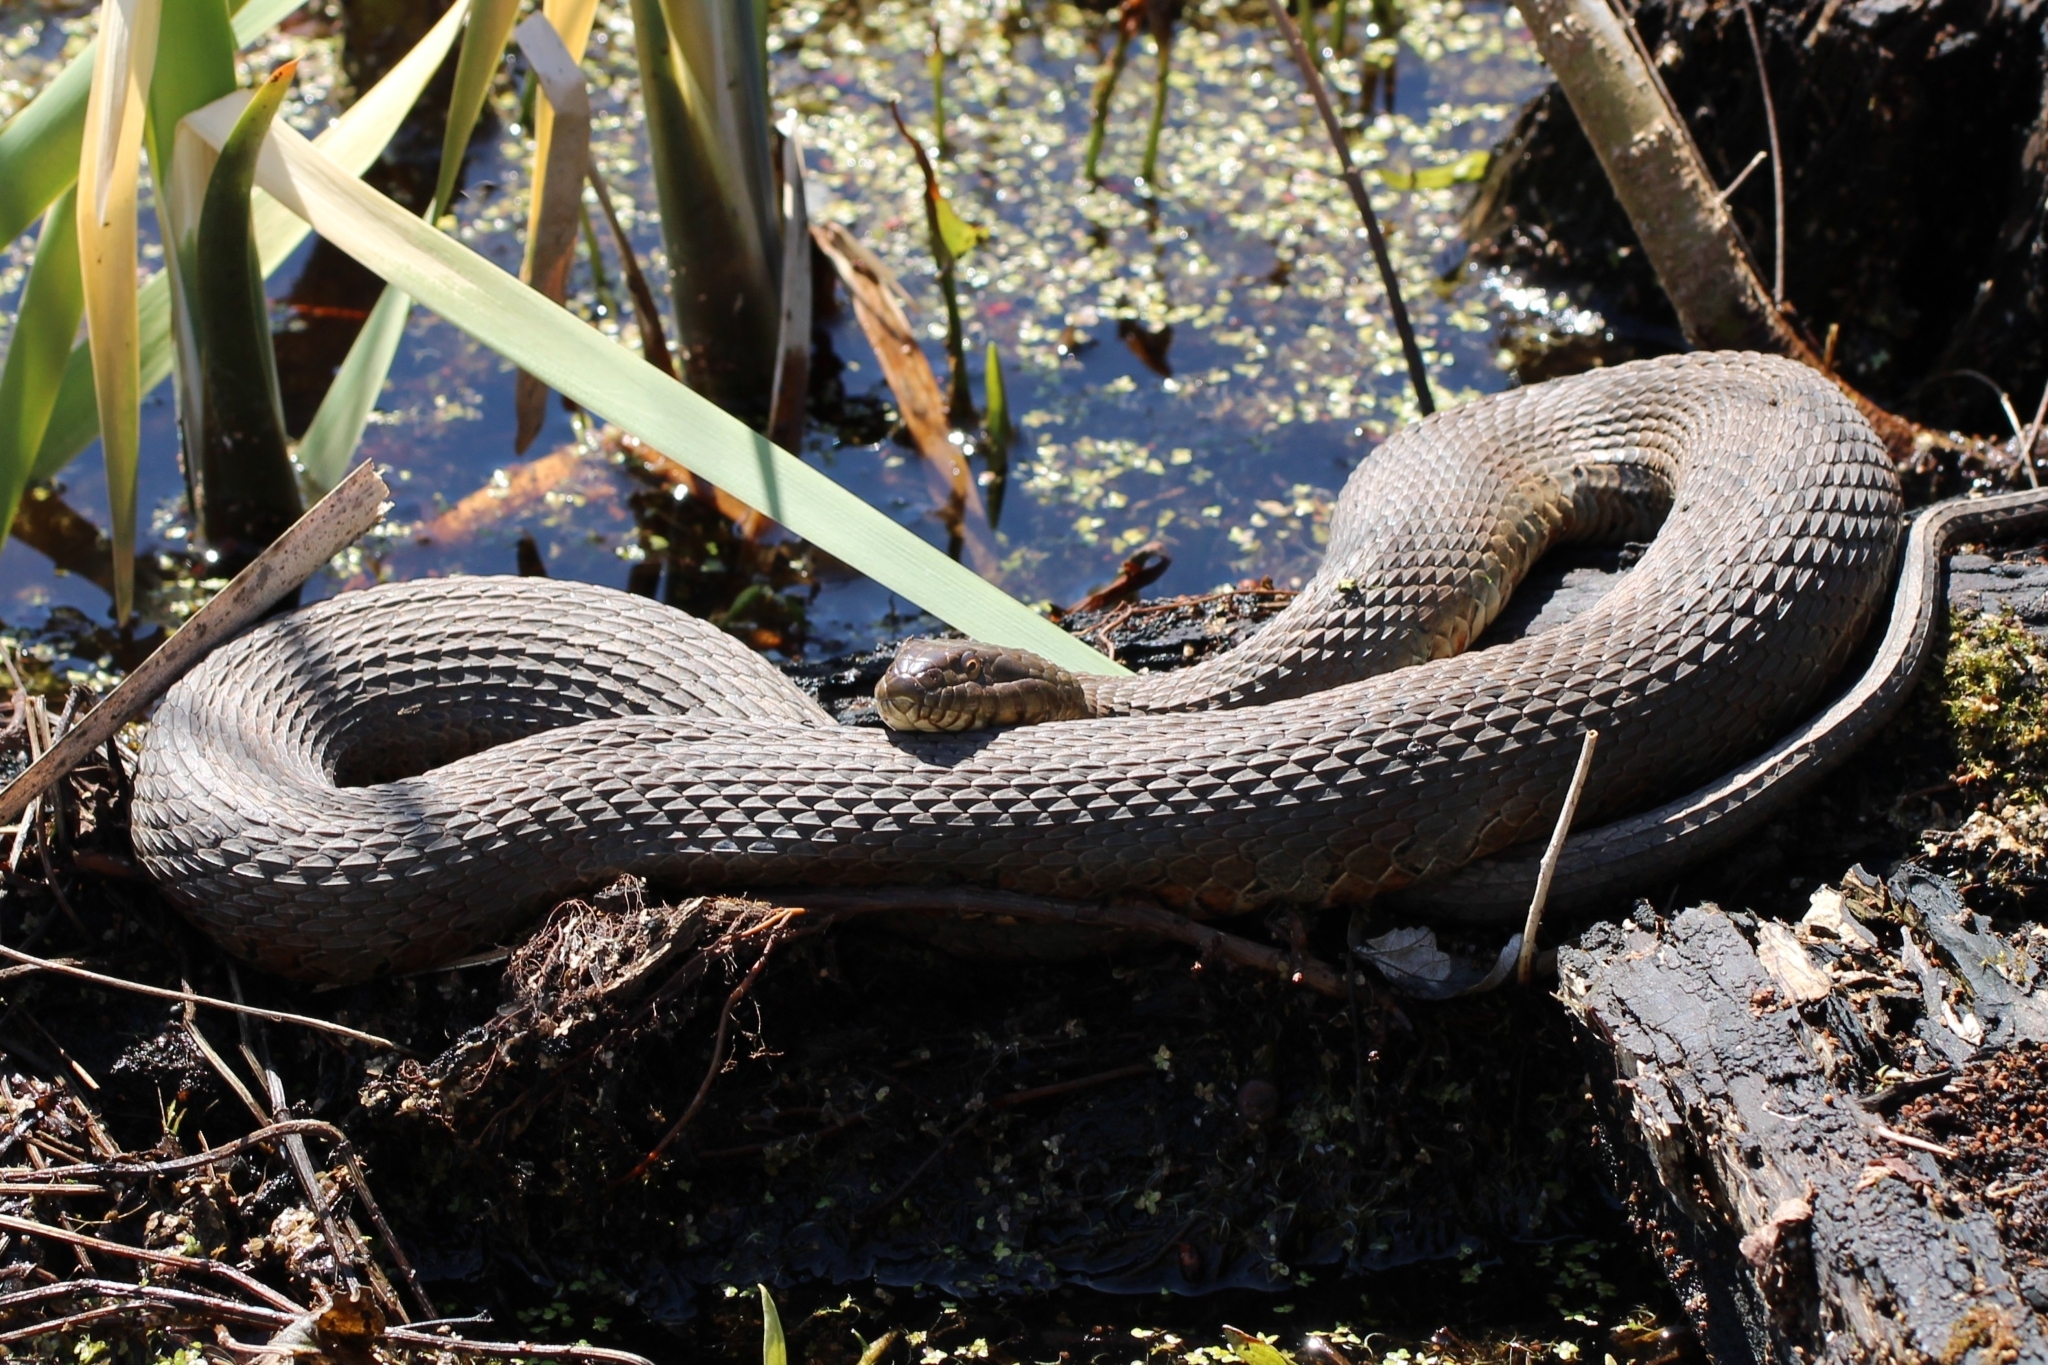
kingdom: Animalia
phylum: Chordata
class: Squamata
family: Colubridae
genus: Nerodia
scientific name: Nerodia sipedon
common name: Northern water snake
